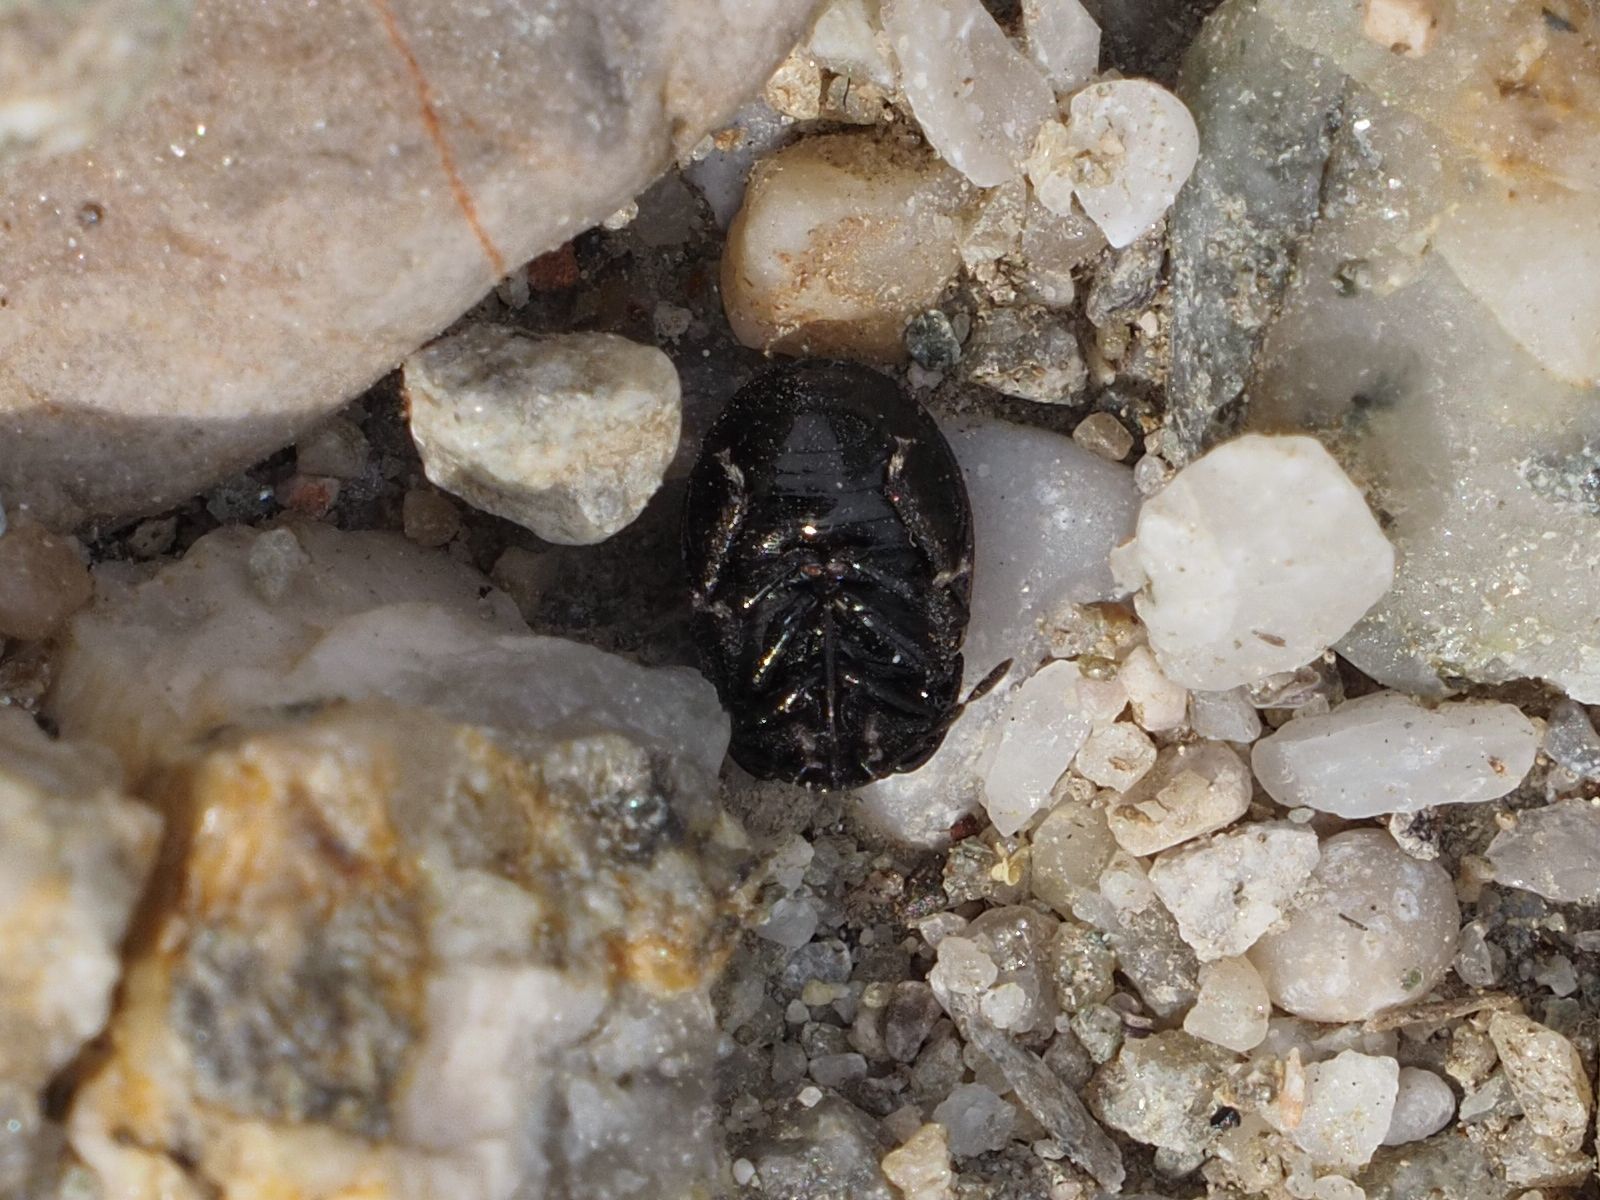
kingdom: Animalia
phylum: Arthropoda
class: Insecta
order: Hemiptera
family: Cydnidae
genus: Legnotus
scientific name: Legnotus limbosus
